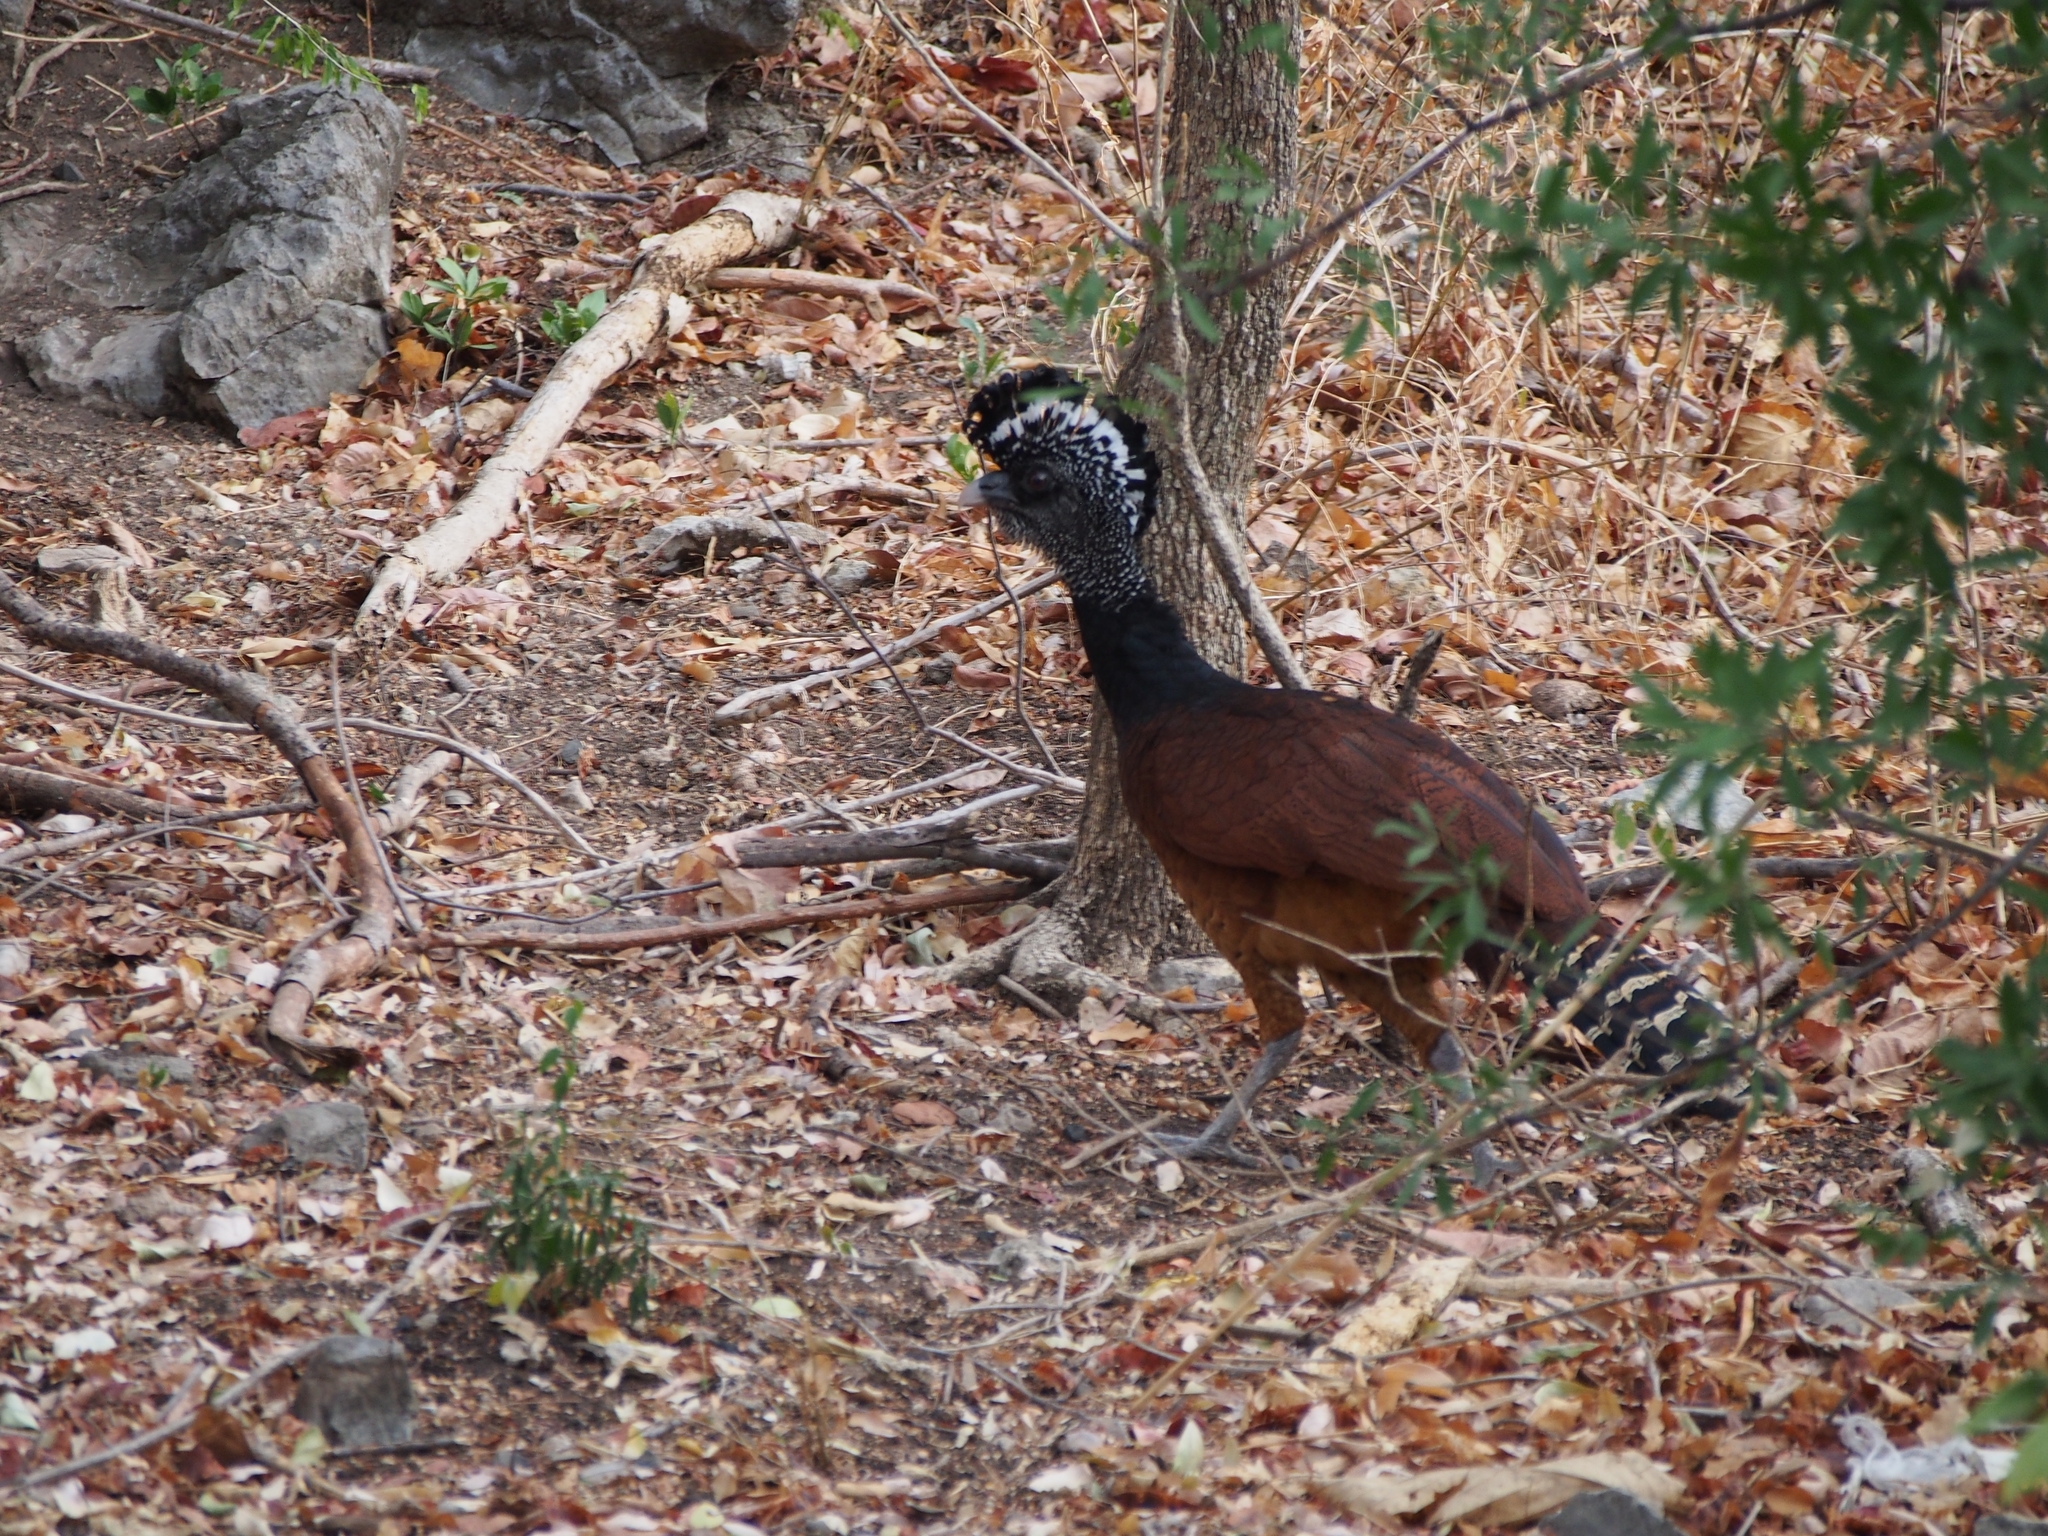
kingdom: Animalia
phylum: Chordata
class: Aves
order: Galliformes
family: Cracidae
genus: Crax
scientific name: Crax rubra
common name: Great curassow
